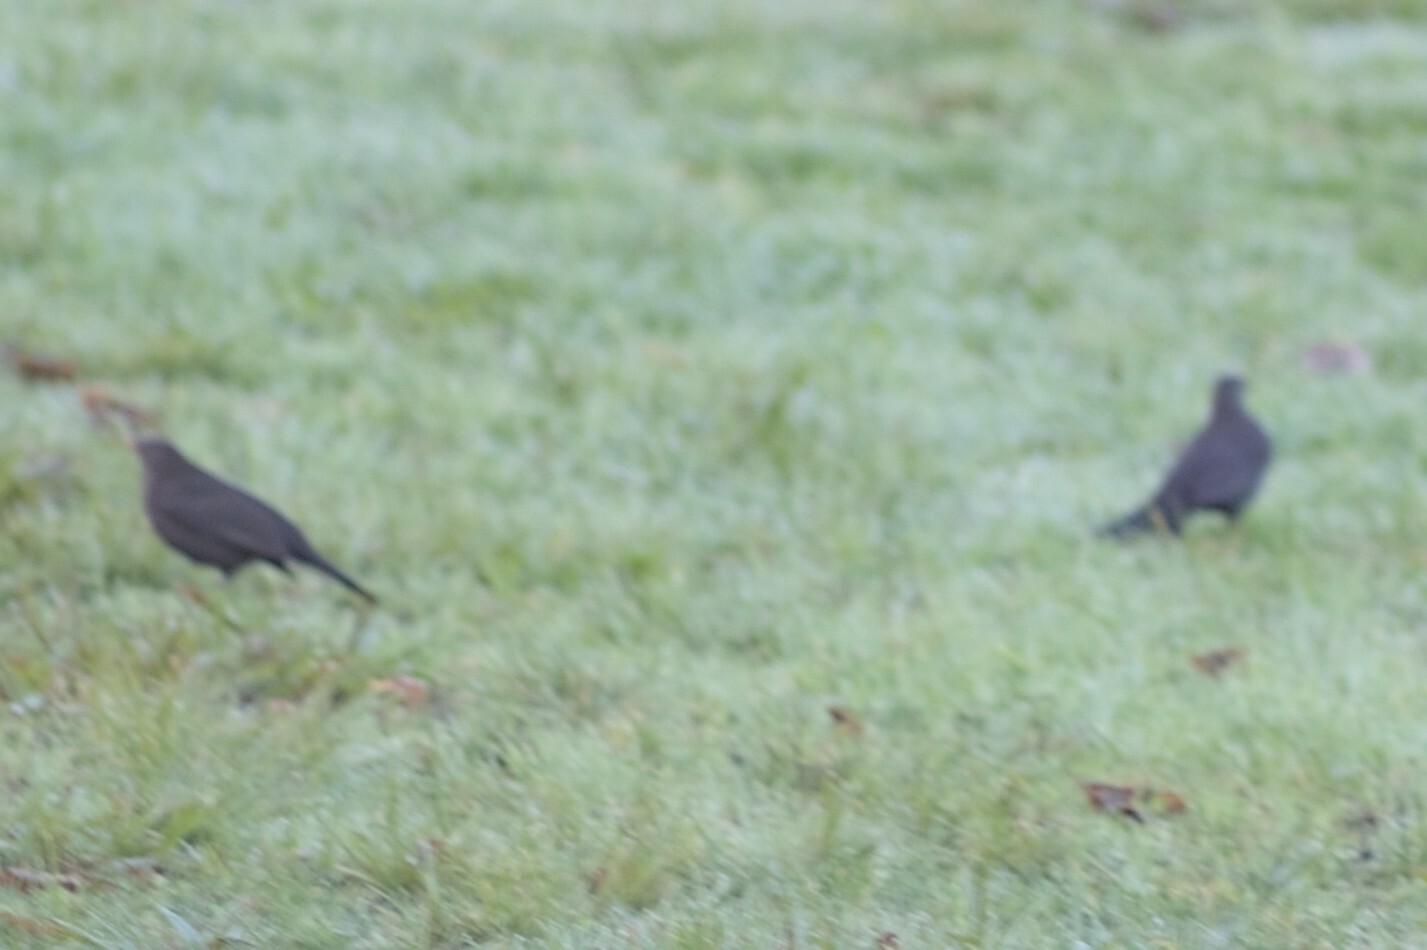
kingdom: Animalia
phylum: Chordata
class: Aves
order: Passeriformes
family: Turdidae
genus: Turdus
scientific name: Turdus merula
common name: Common blackbird
